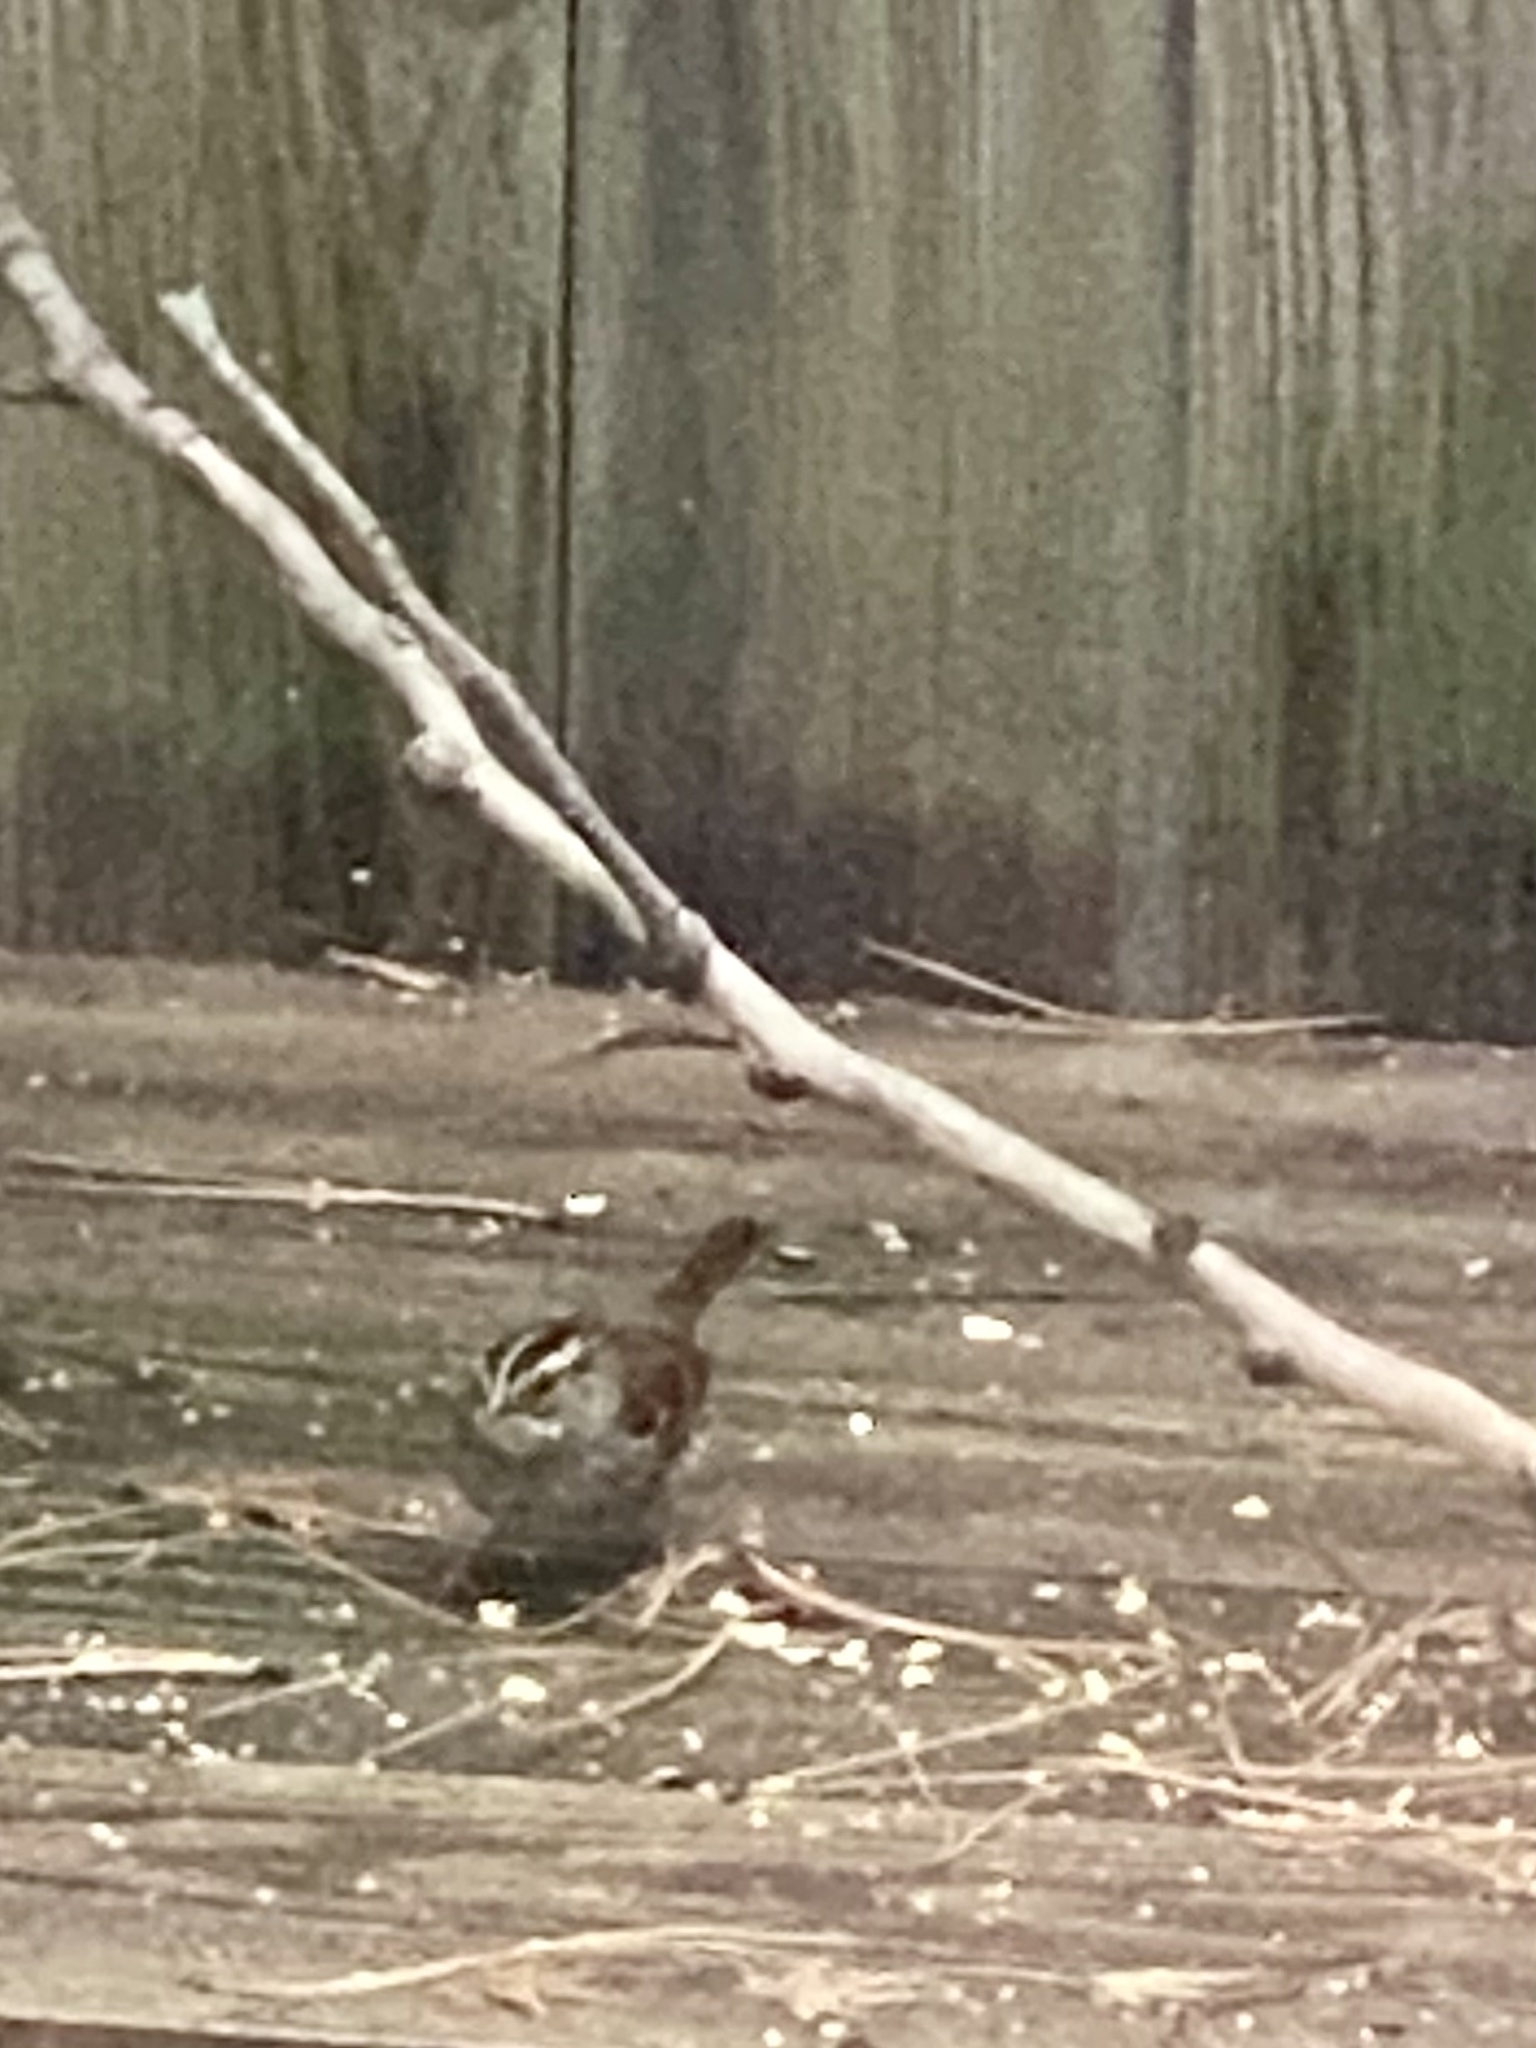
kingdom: Animalia
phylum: Chordata
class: Aves
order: Passeriformes
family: Passerellidae
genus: Zonotrichia
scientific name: Zonotrichia albicollis
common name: White-throated sparrow
